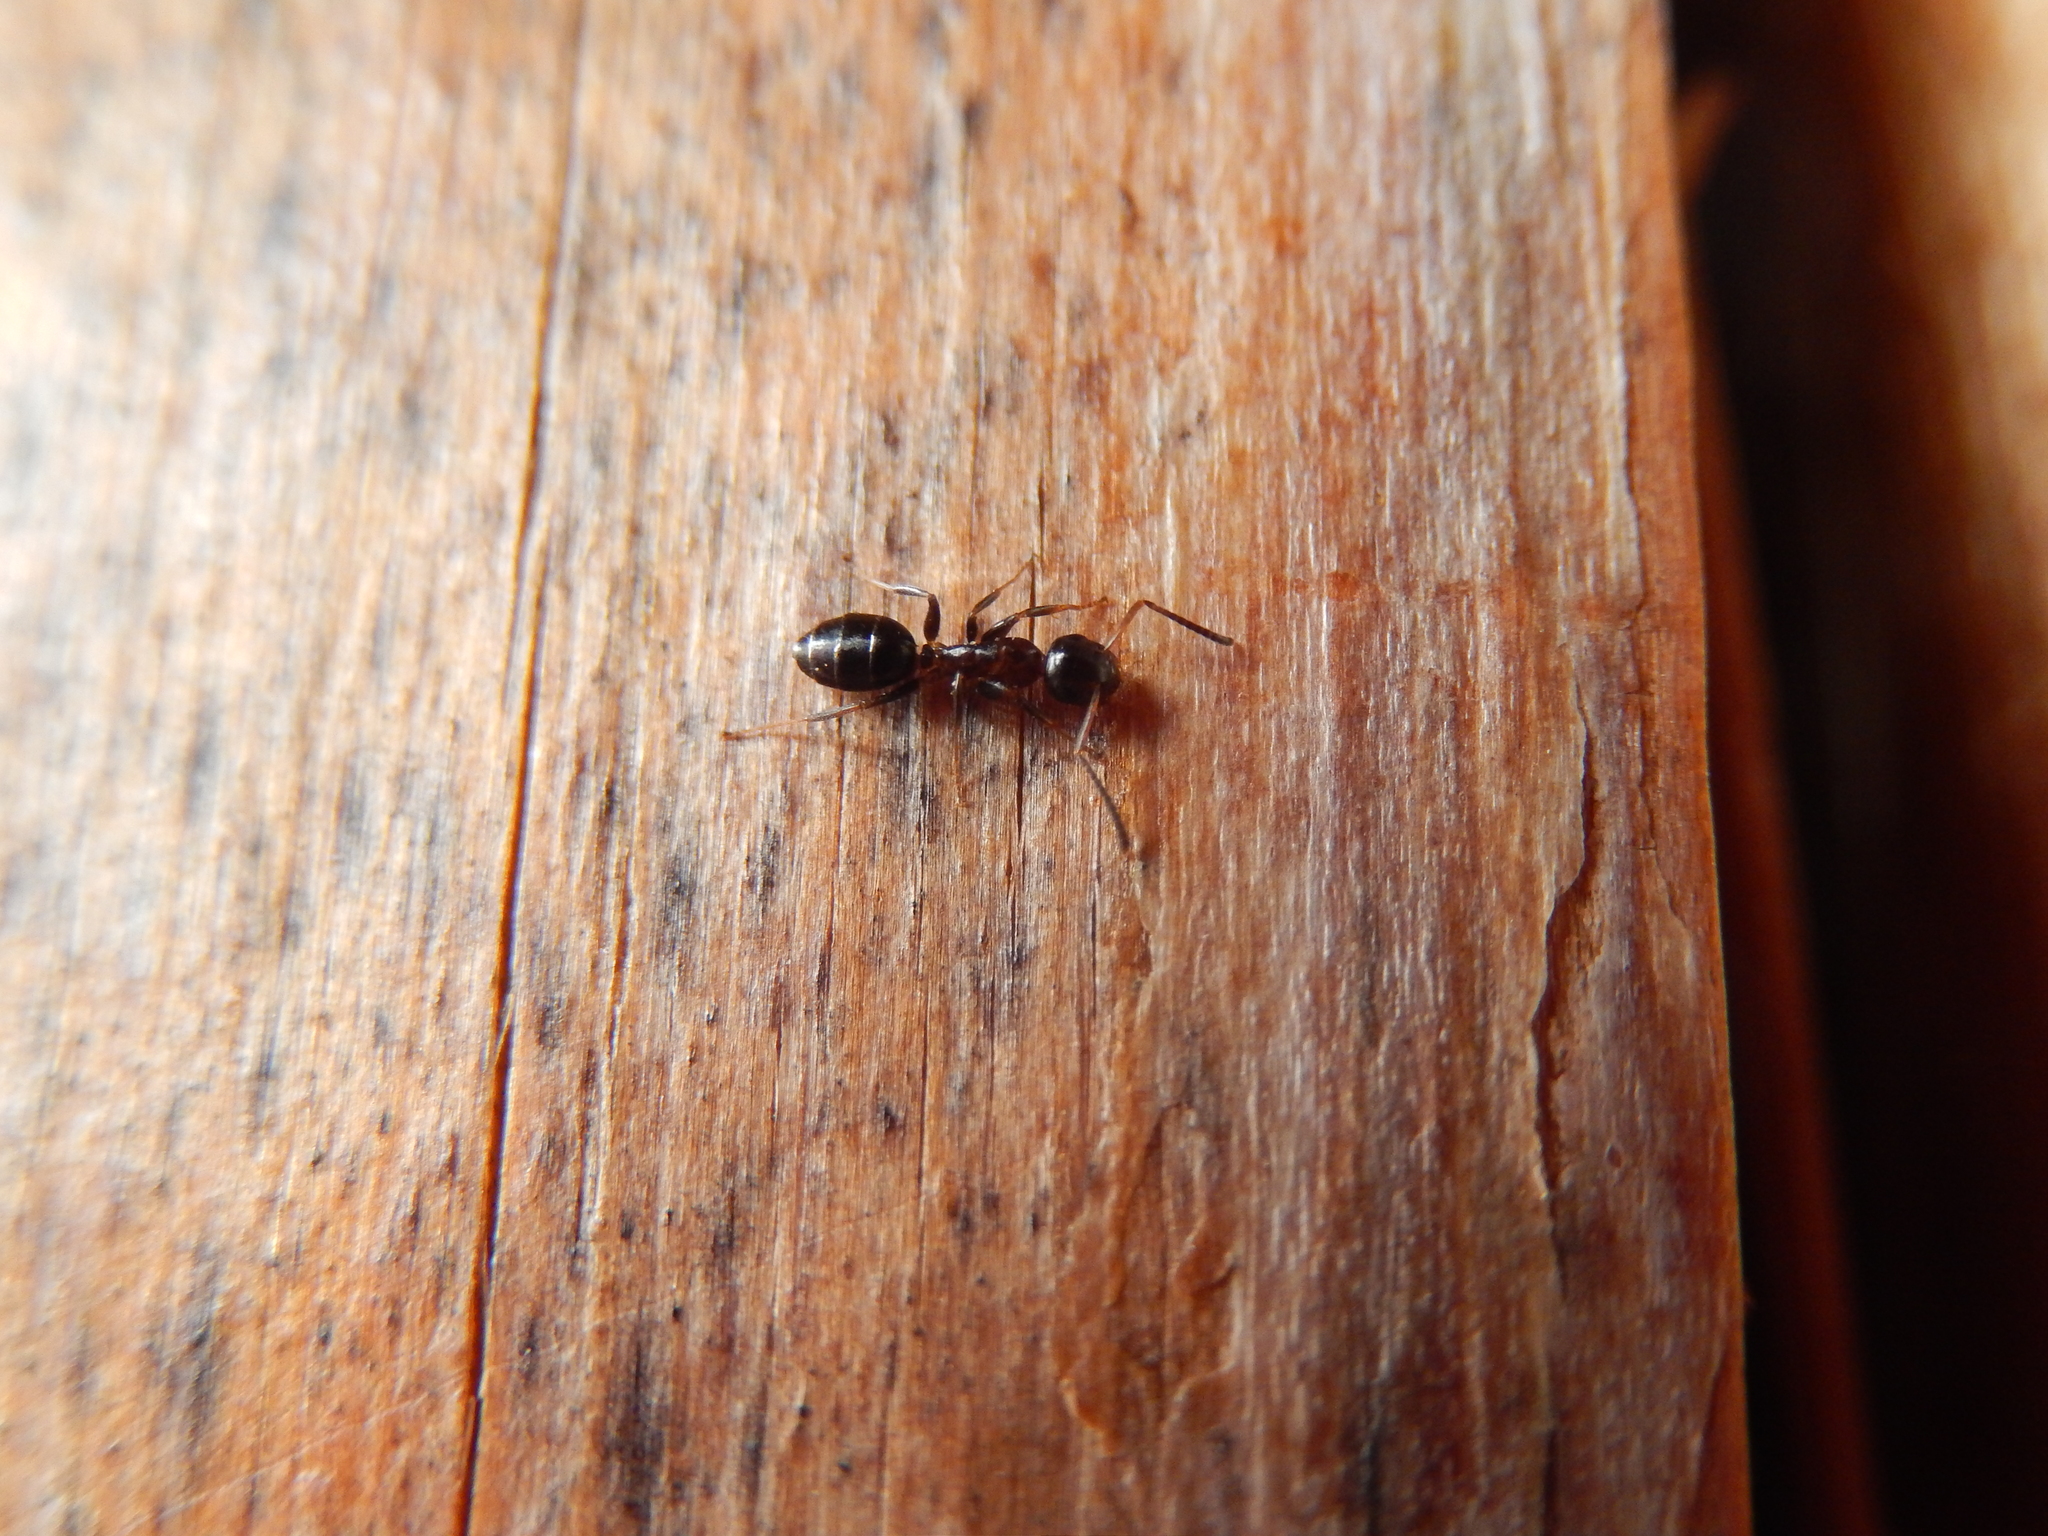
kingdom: Animalia
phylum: Arthropoda
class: Insecta
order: Hymenoptera
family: Formicidae
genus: Camponotus
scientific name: Camponotus truncatus
